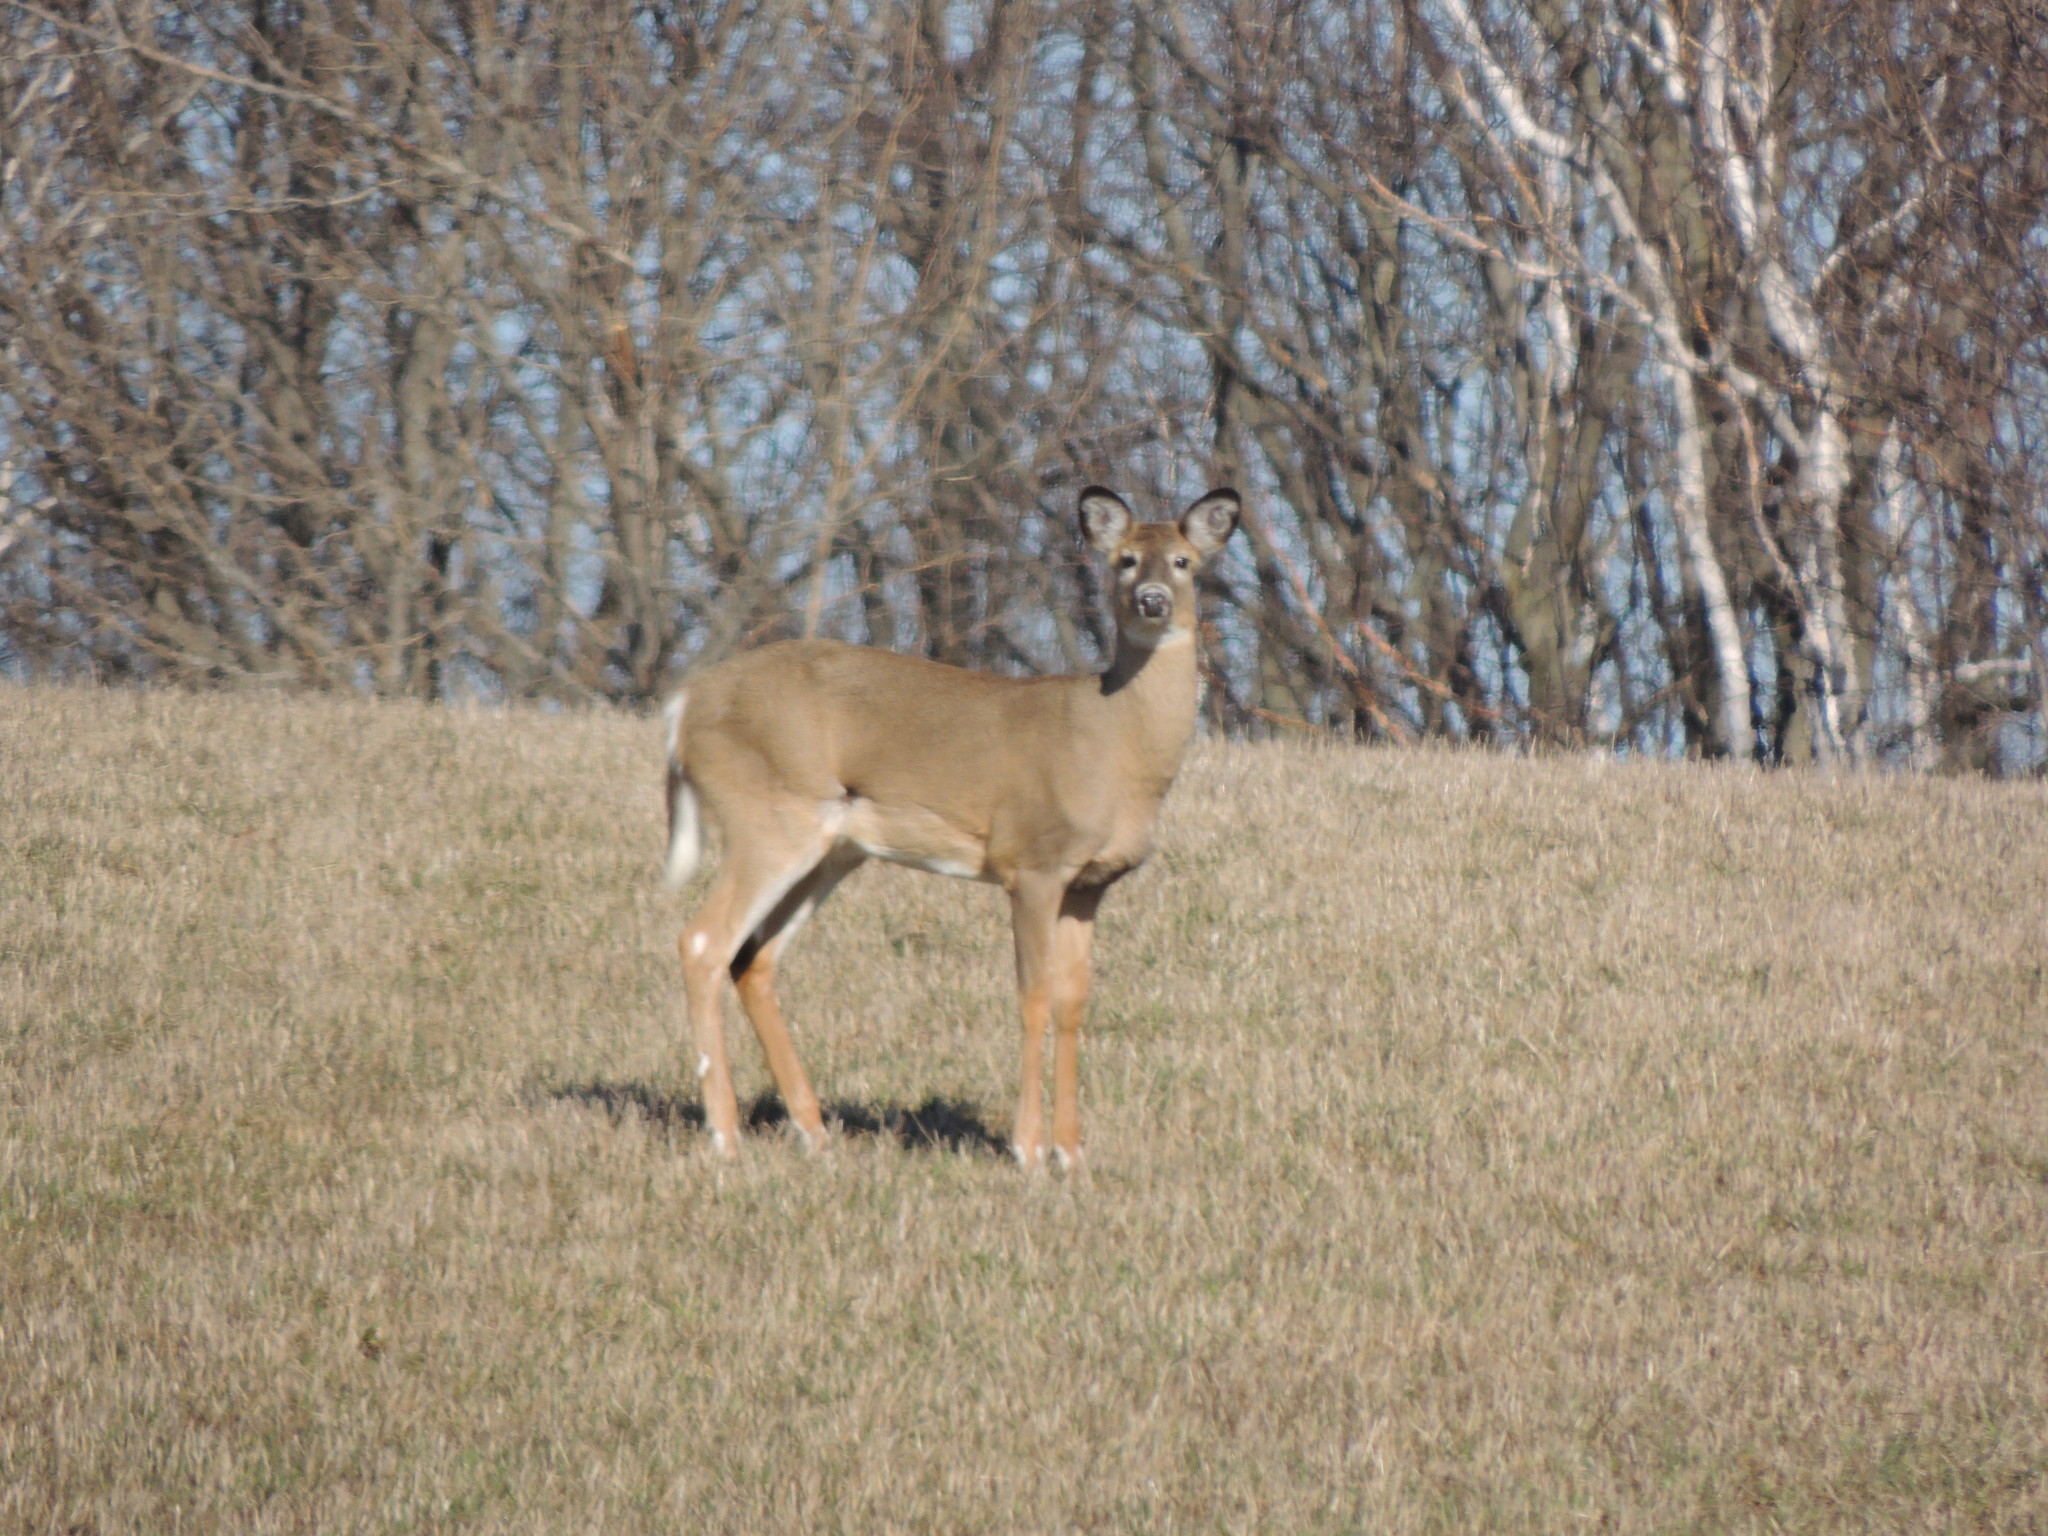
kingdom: Animalia
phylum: Chordata
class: Mammalia
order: Artiodactyla
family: Cervidae
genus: Odocoileus
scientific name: Odocoileus virginianus
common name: White-tailed deer
